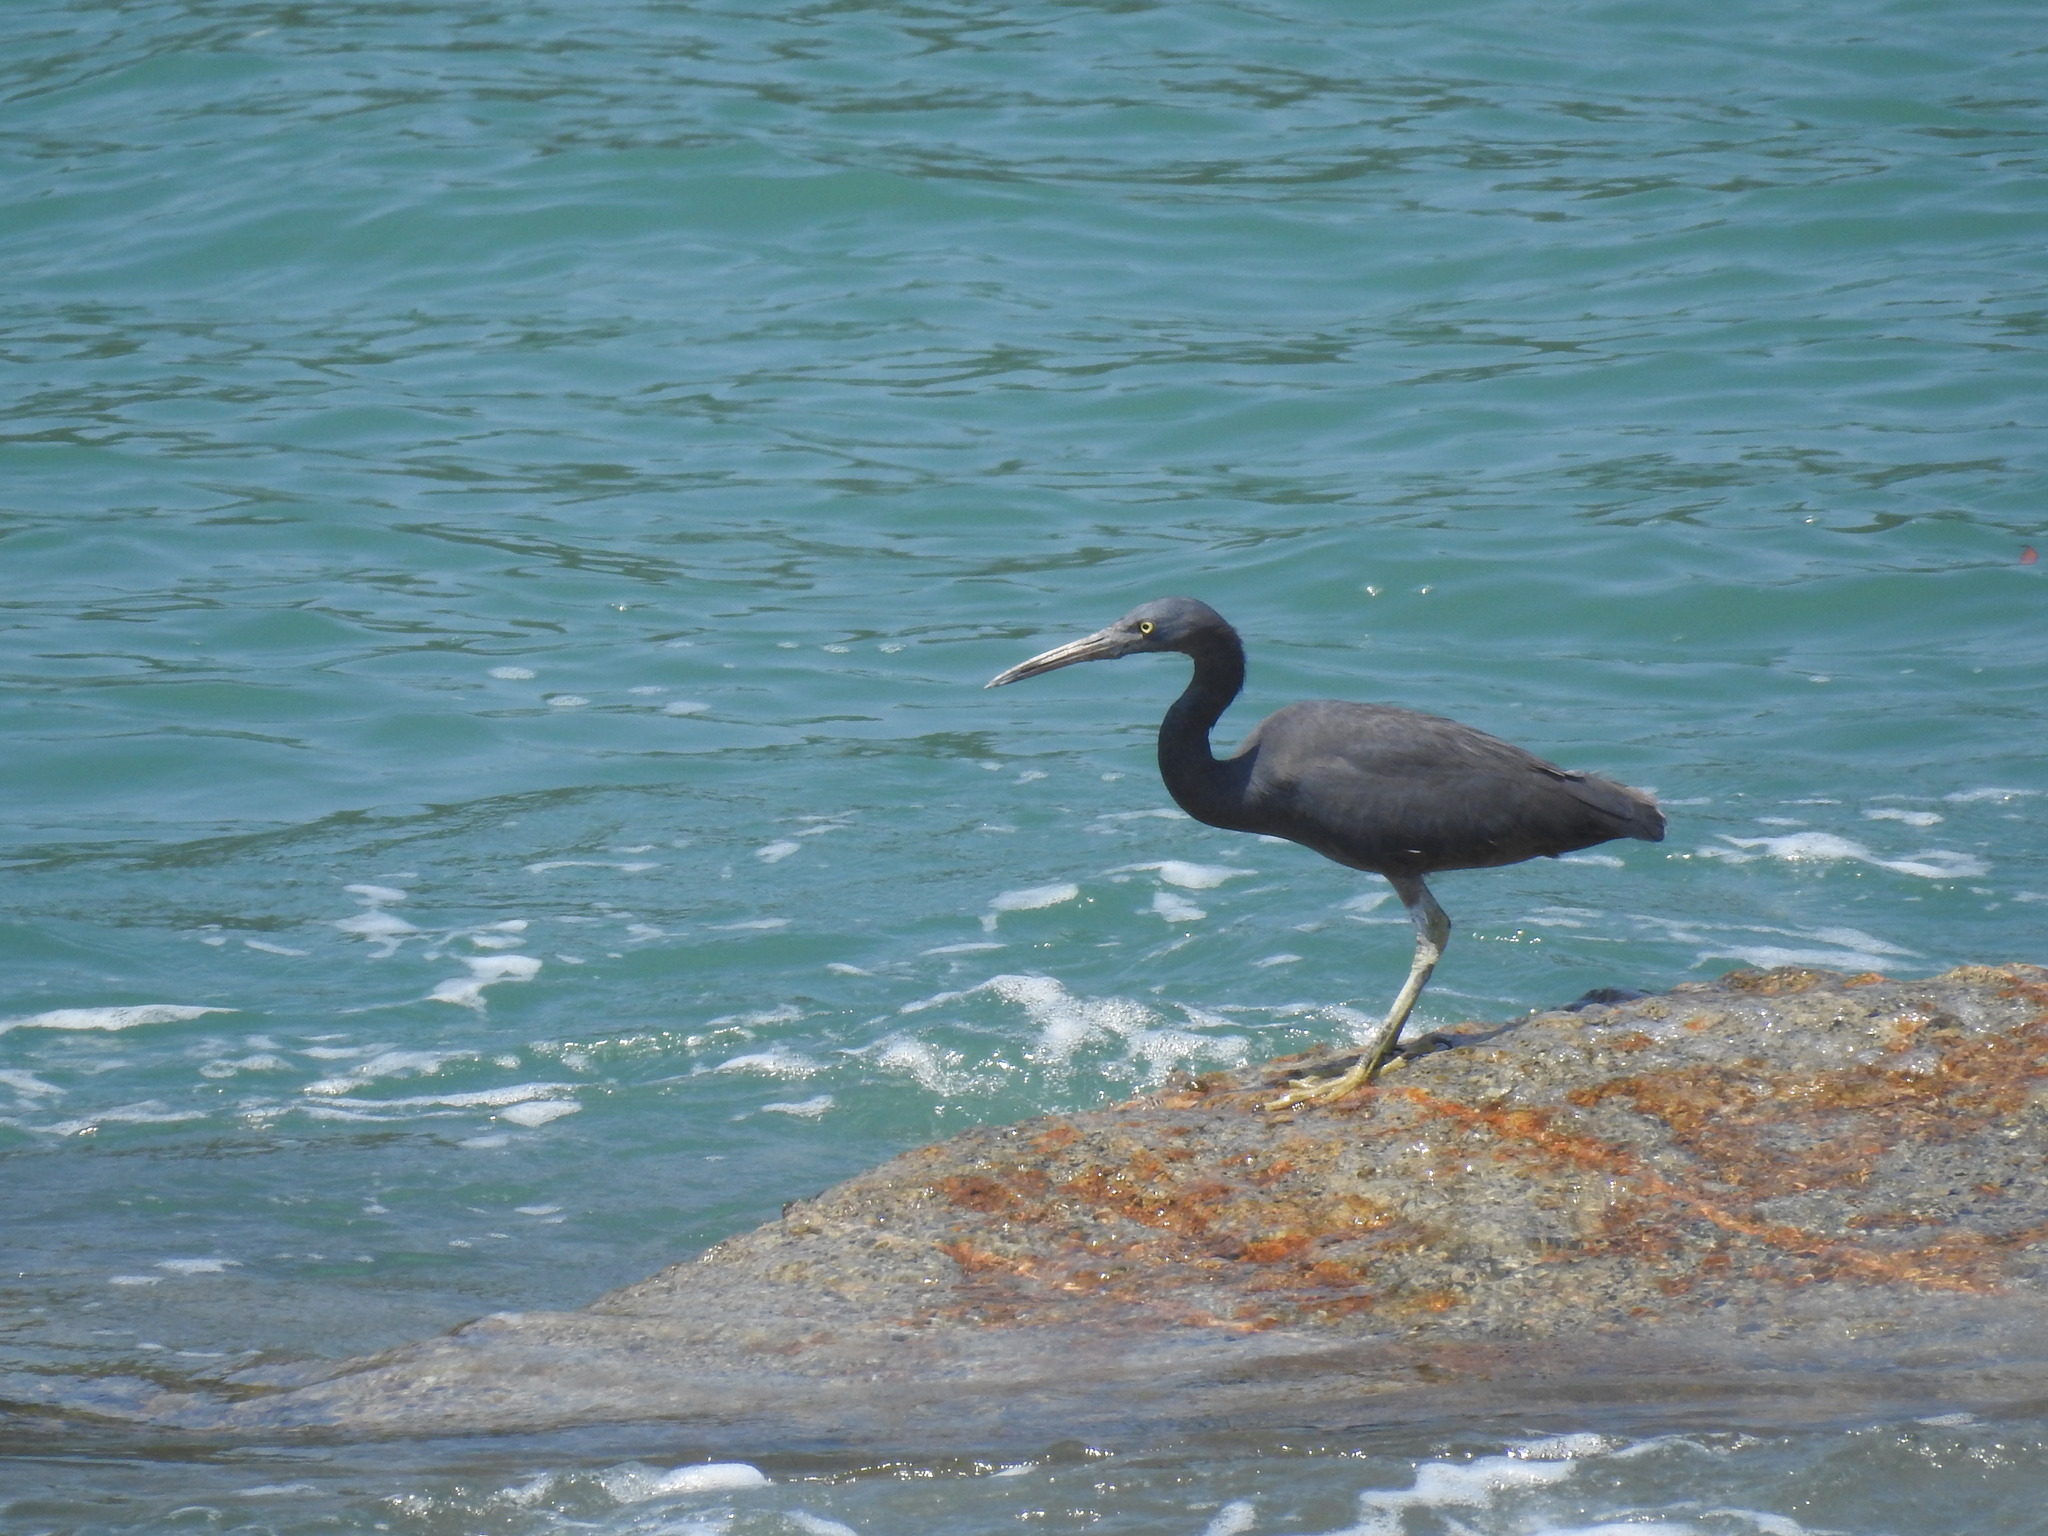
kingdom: Animalia
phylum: Chordata
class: Aves
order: Pelecaniformes
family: Ardeidae
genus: Egretta
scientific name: Egretta sacra
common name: Pacific reef heron
